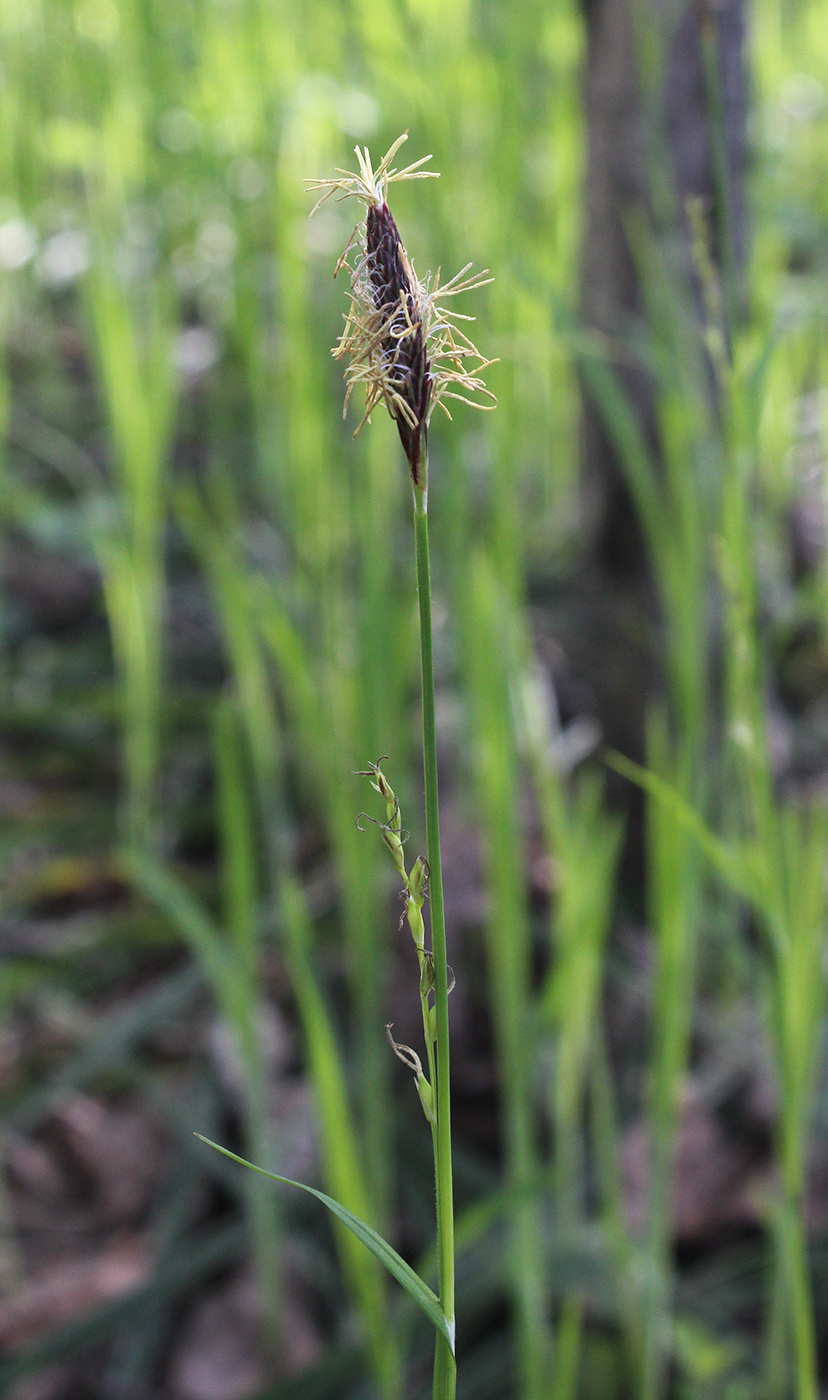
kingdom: Plantae
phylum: Tracheophyta
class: Liliopsida
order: Poales
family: Cyperaceae
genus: Carex
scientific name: Carex pilosa
